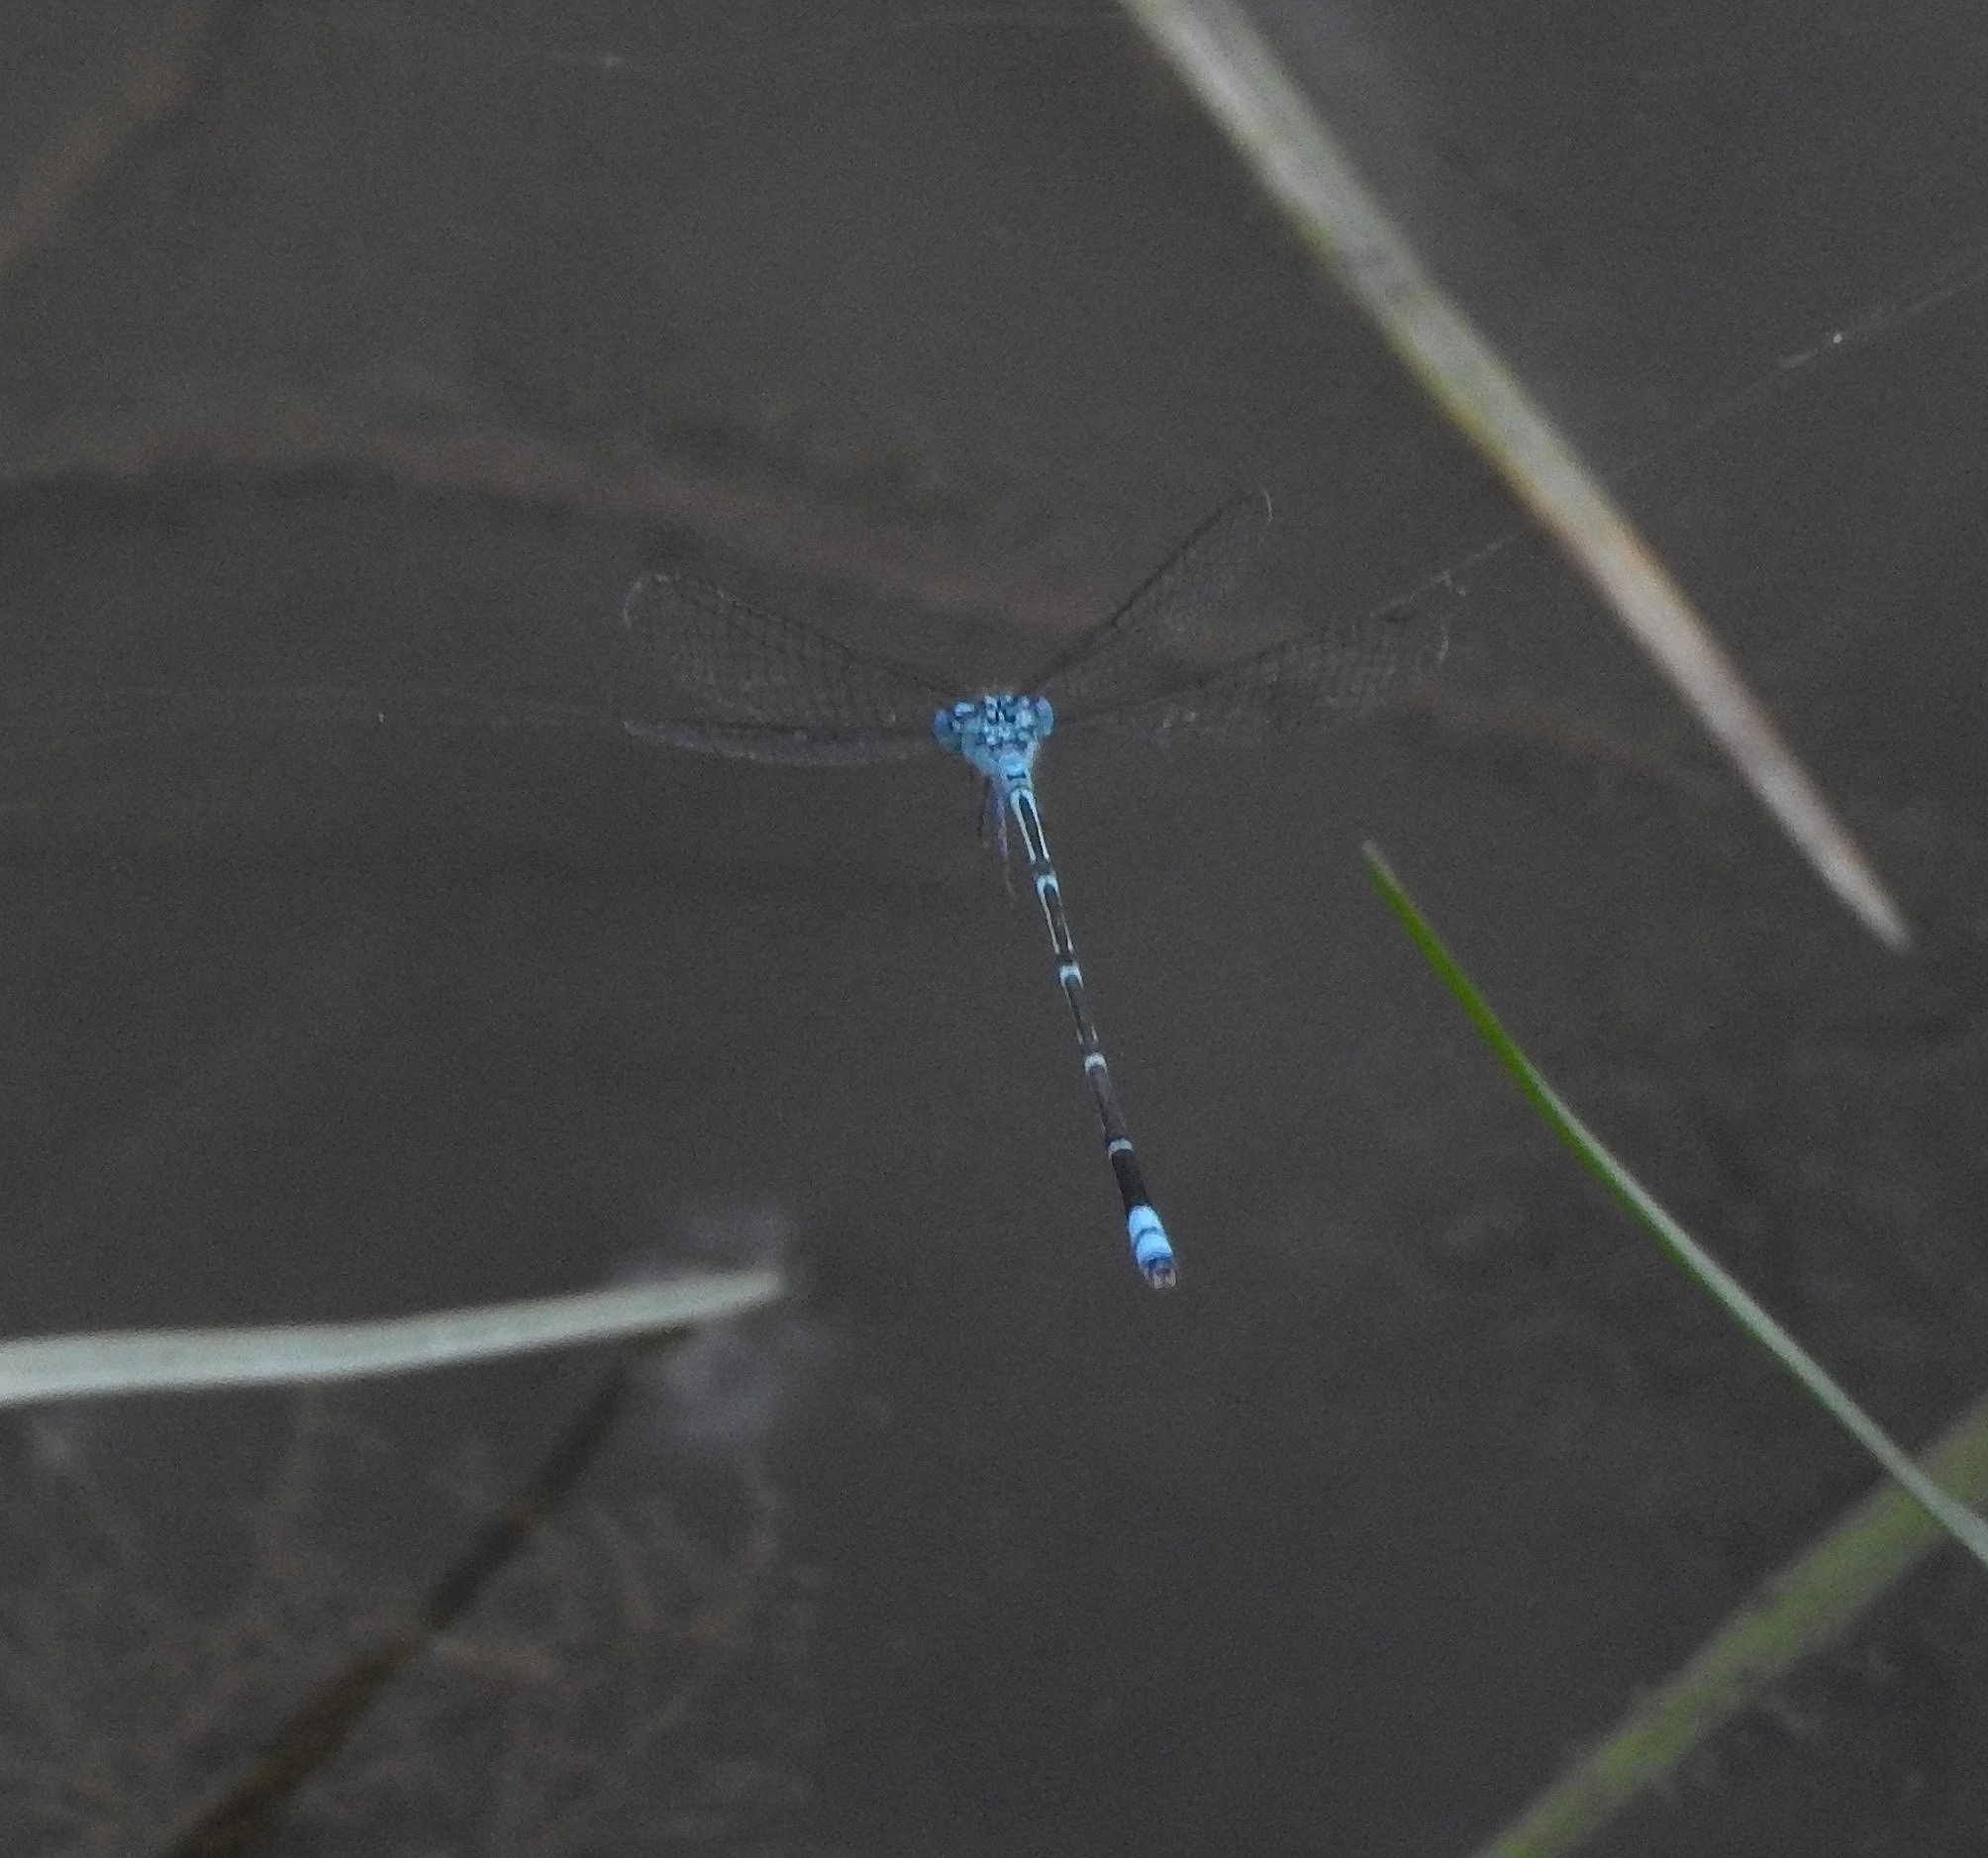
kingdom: Animalia
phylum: Arthropoda
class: Insecta
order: Odonata
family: Coenagrionidae
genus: Pseudagrion
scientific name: Pseudagrion microcephalum
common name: Blue riverdamsel
